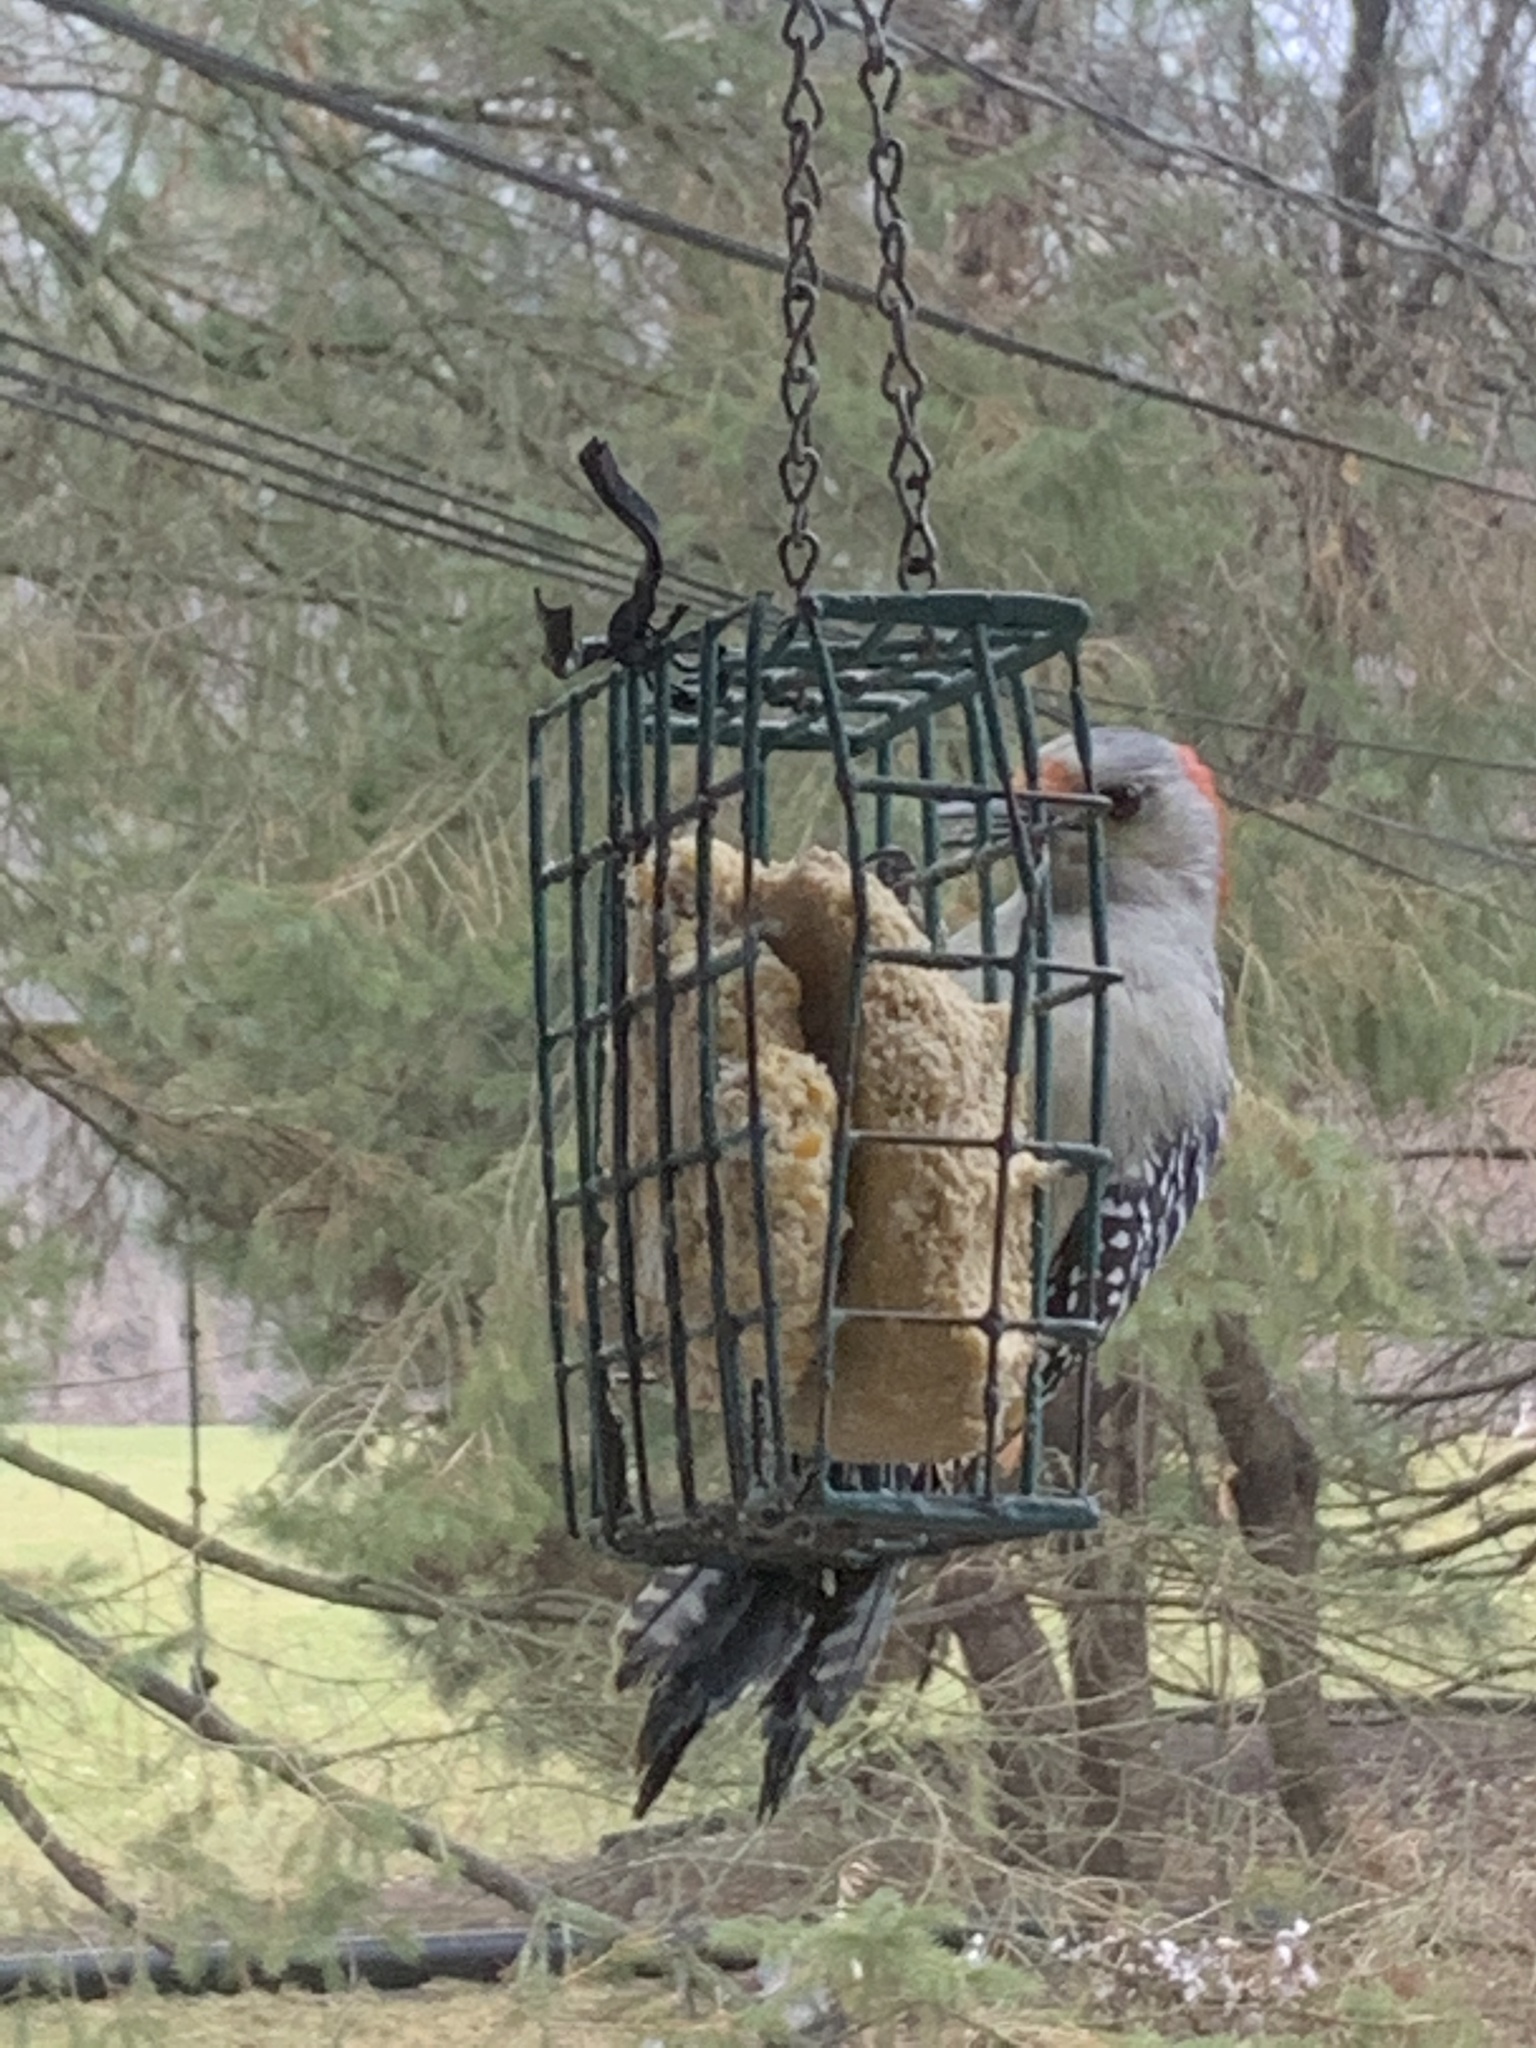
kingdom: Animalia
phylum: Chordata
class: Aves
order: Piciformes
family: Picidae
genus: Melanerpes
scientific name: Melanerpes carolinus
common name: Red-bellied woodpecker
